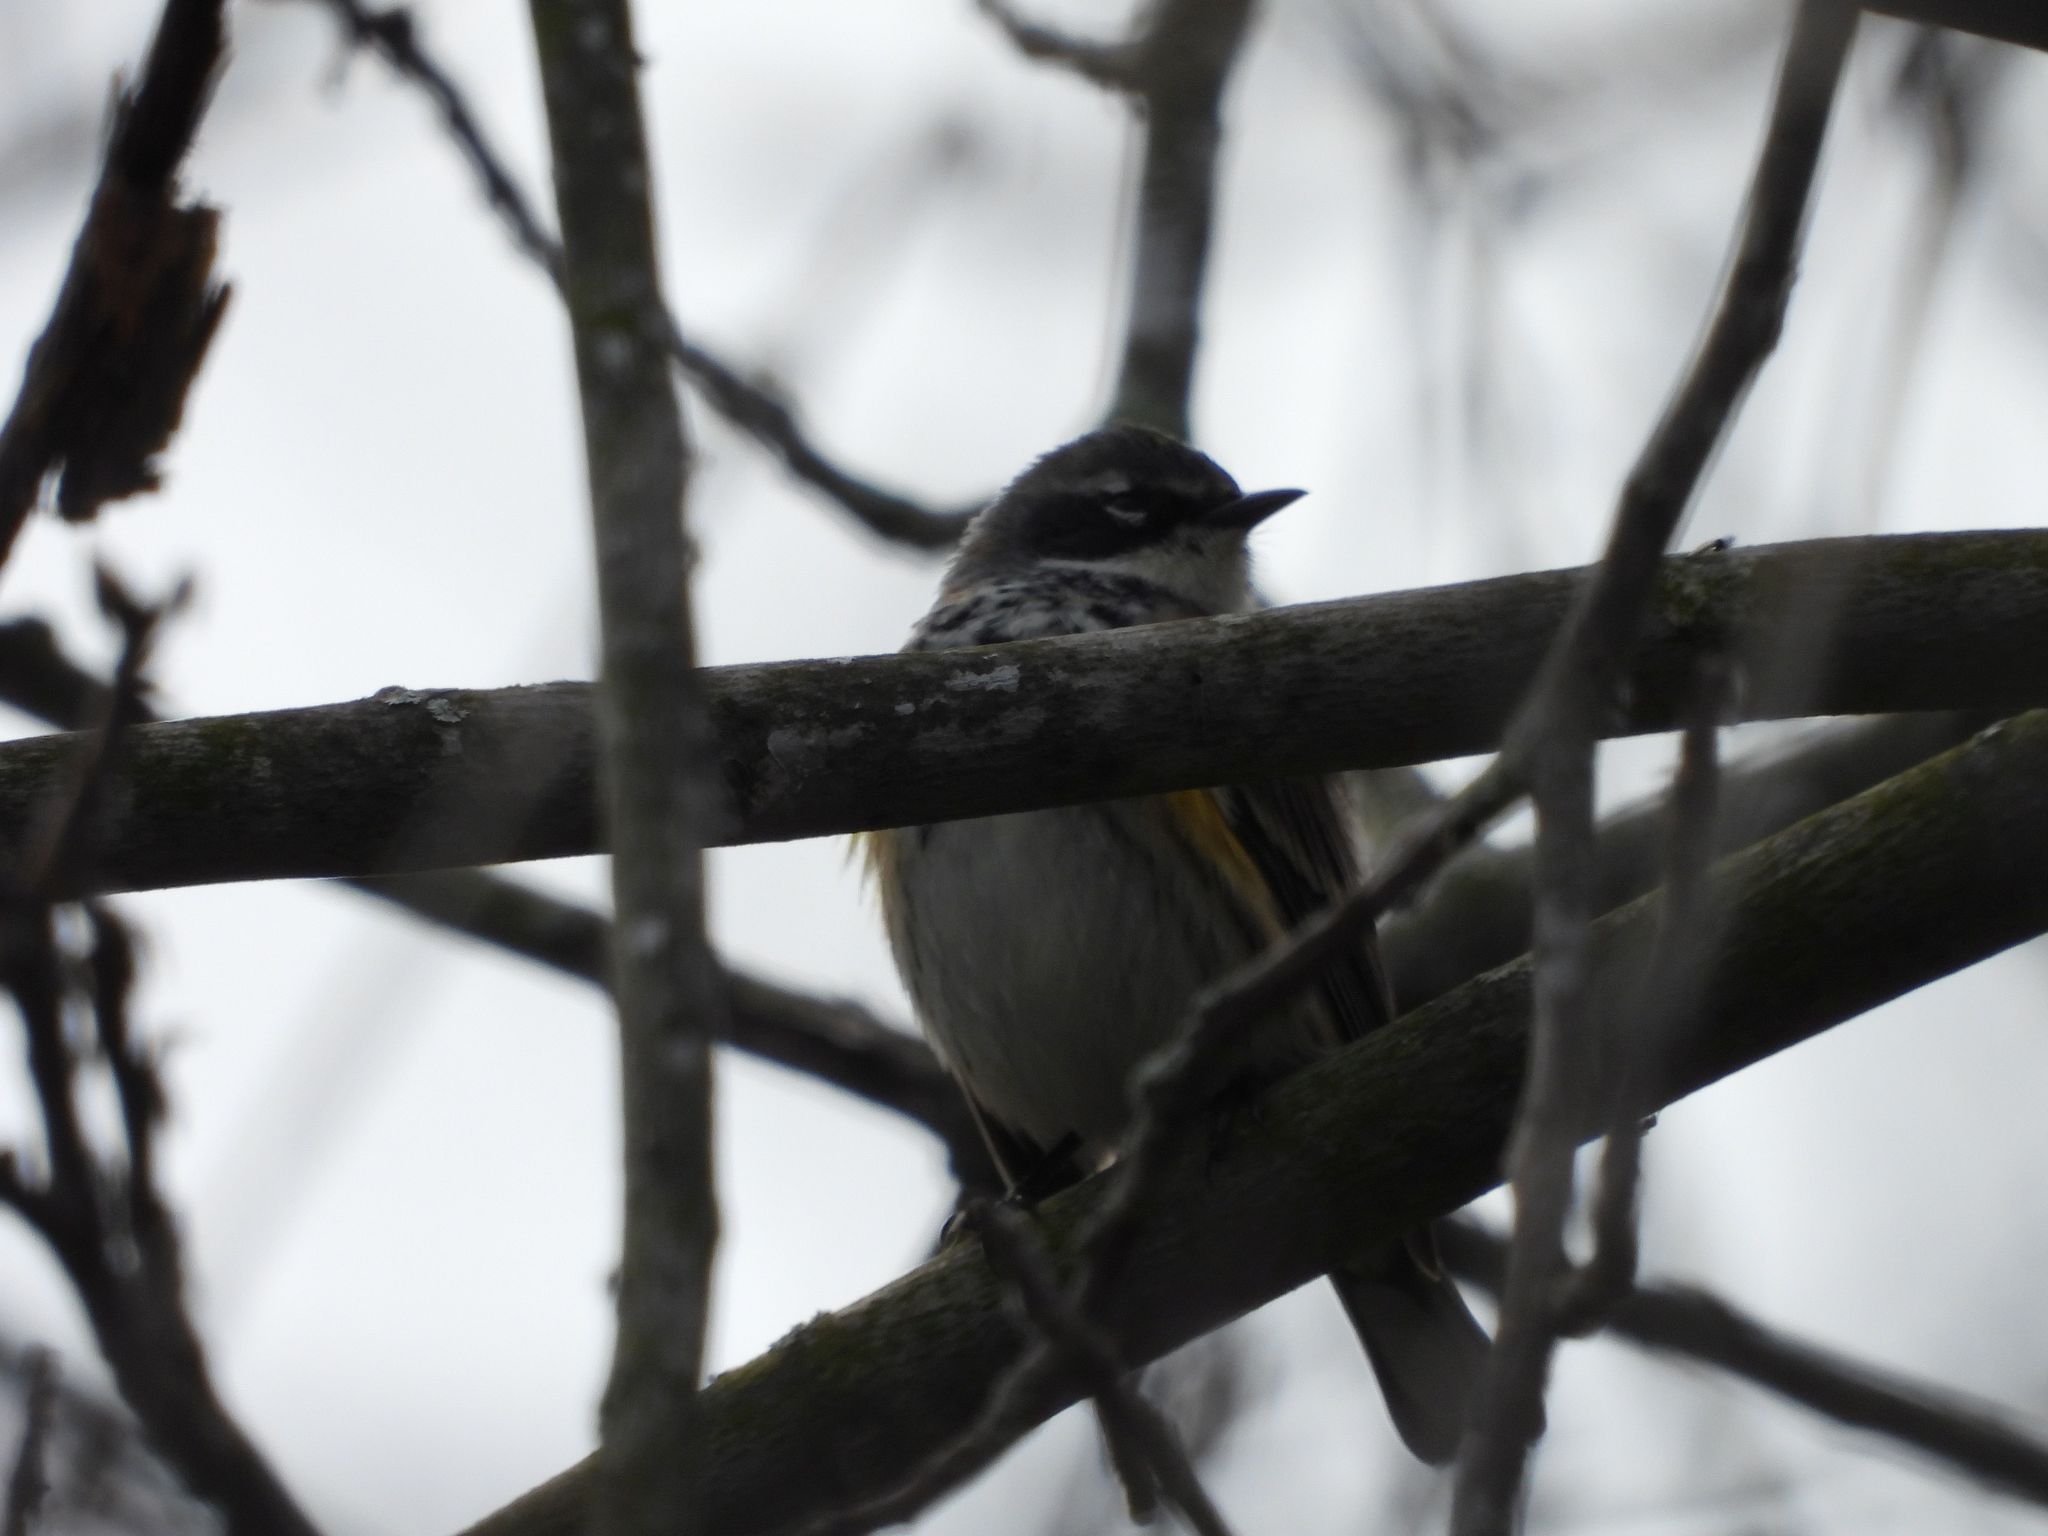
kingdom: Animalia
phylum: Chordata
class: Aves
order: Passeriformes
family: Parulidae
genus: Setophaga
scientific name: Setophaga coronata
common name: Myrtle warbler
